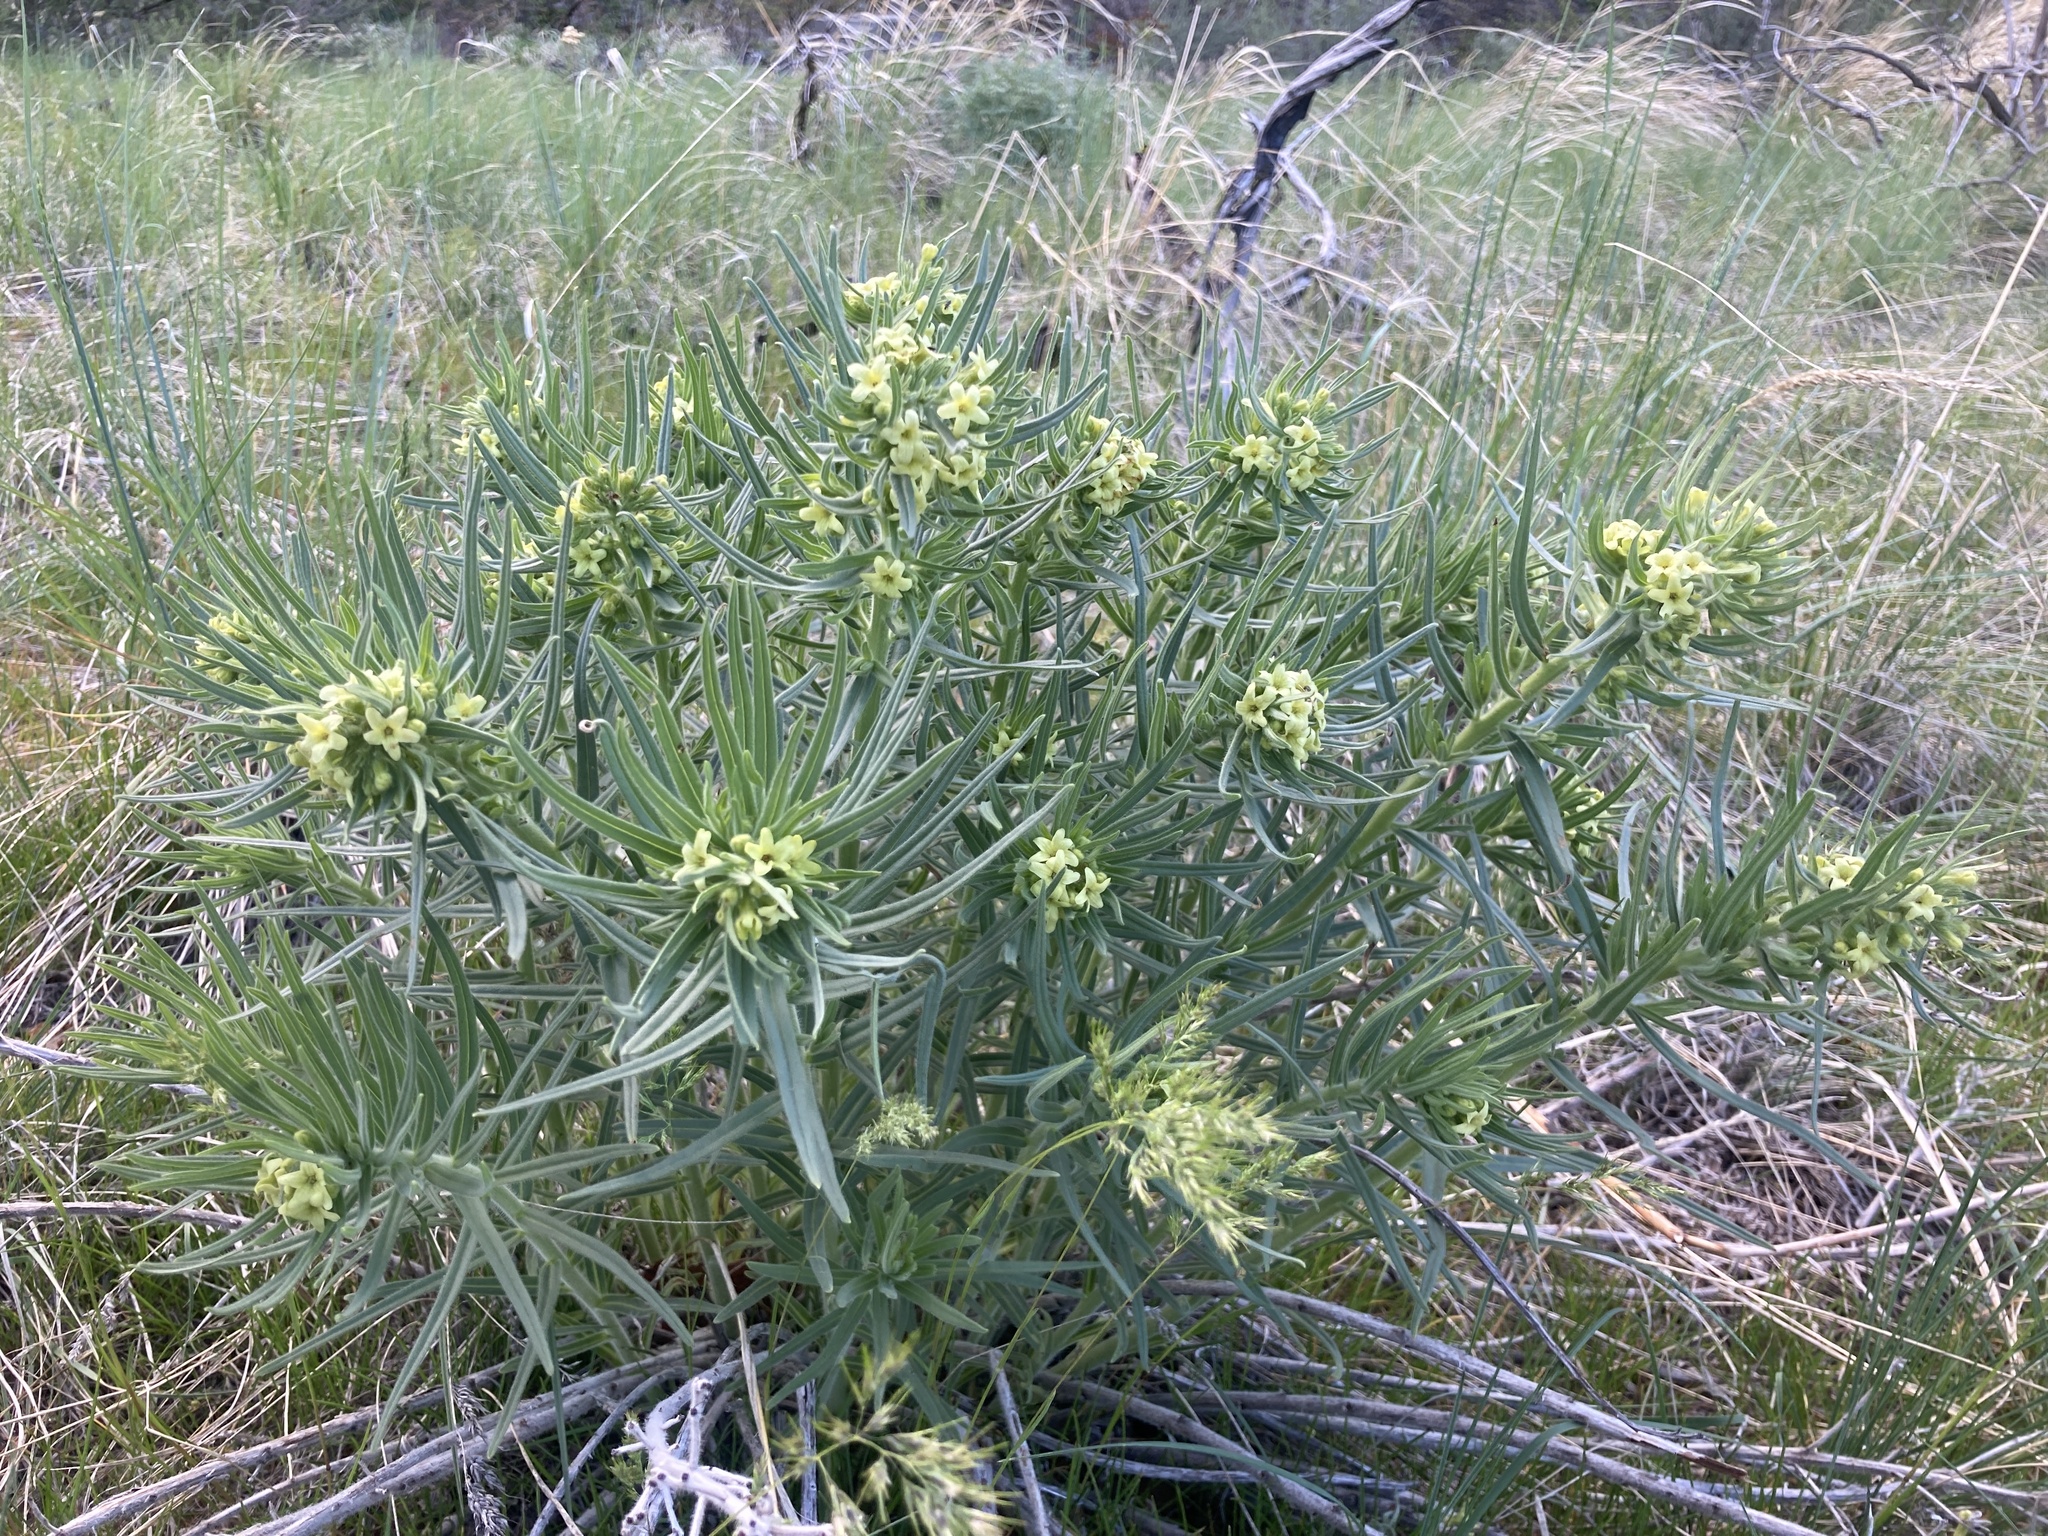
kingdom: Plantae
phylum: Tracheophyta
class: Magnoliopsida
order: Boraginales
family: Boraginaceae
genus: Lithospermum
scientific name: Lithospermum ruderale
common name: Western gromwell
